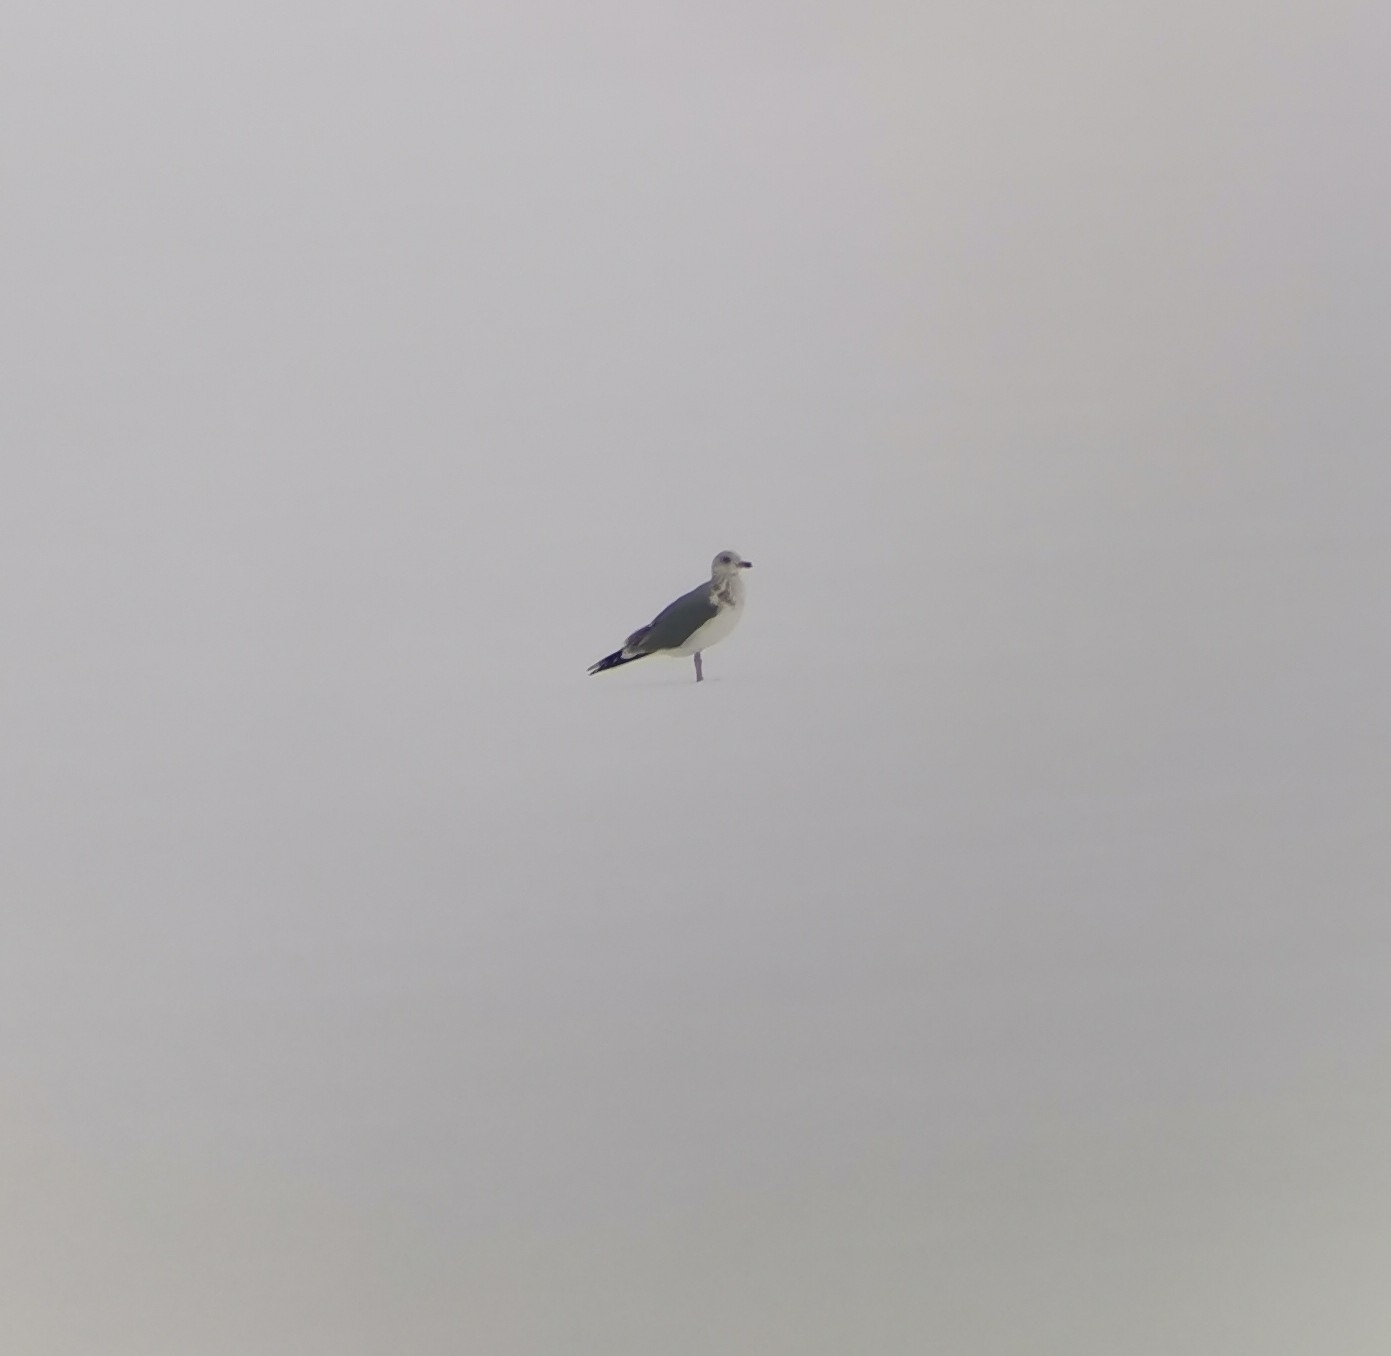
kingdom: Animalia
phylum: Chordata
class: Aves
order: Charadriiformes
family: Laridae
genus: Larus
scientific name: Larus argentatus
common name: Herring gull
